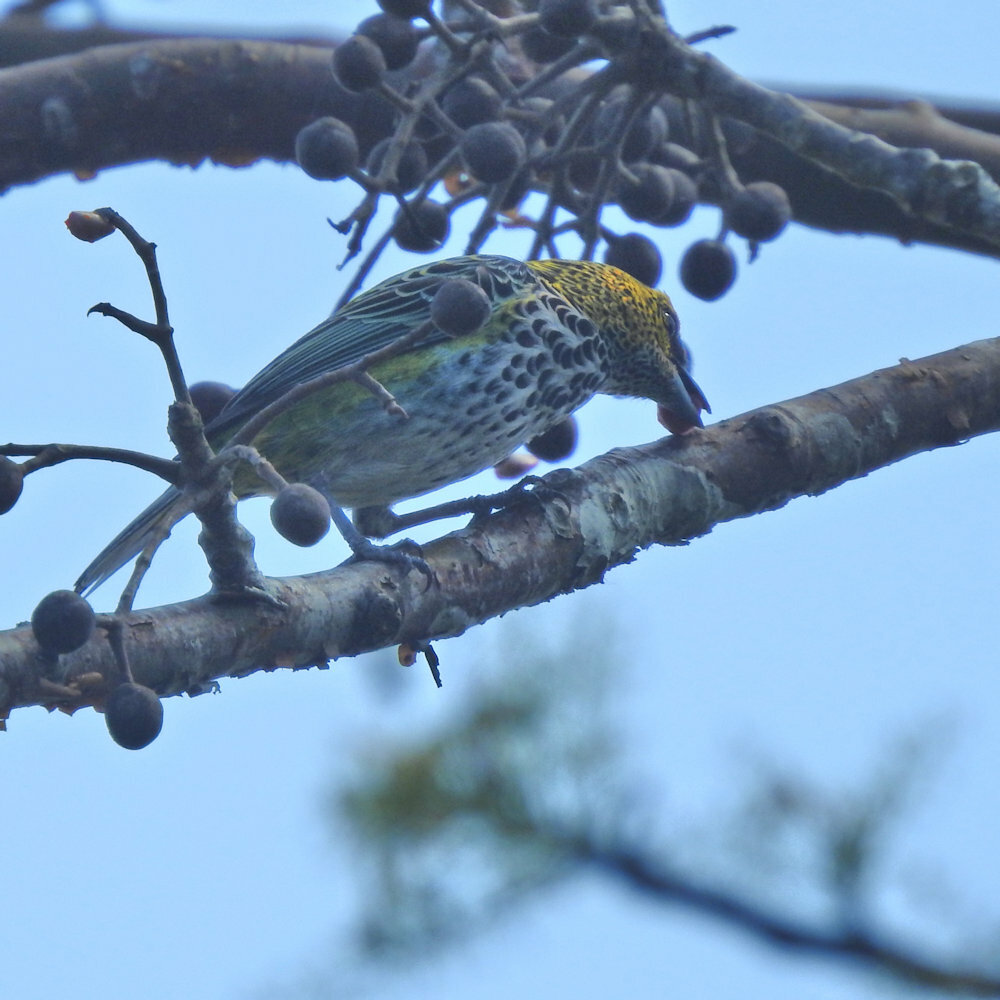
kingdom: Animalia
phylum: Chordata
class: Aves
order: Passeriformes
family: Thraupidae
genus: Ixothraupis
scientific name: Ixothraupis guttata
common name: Speckled tanager
